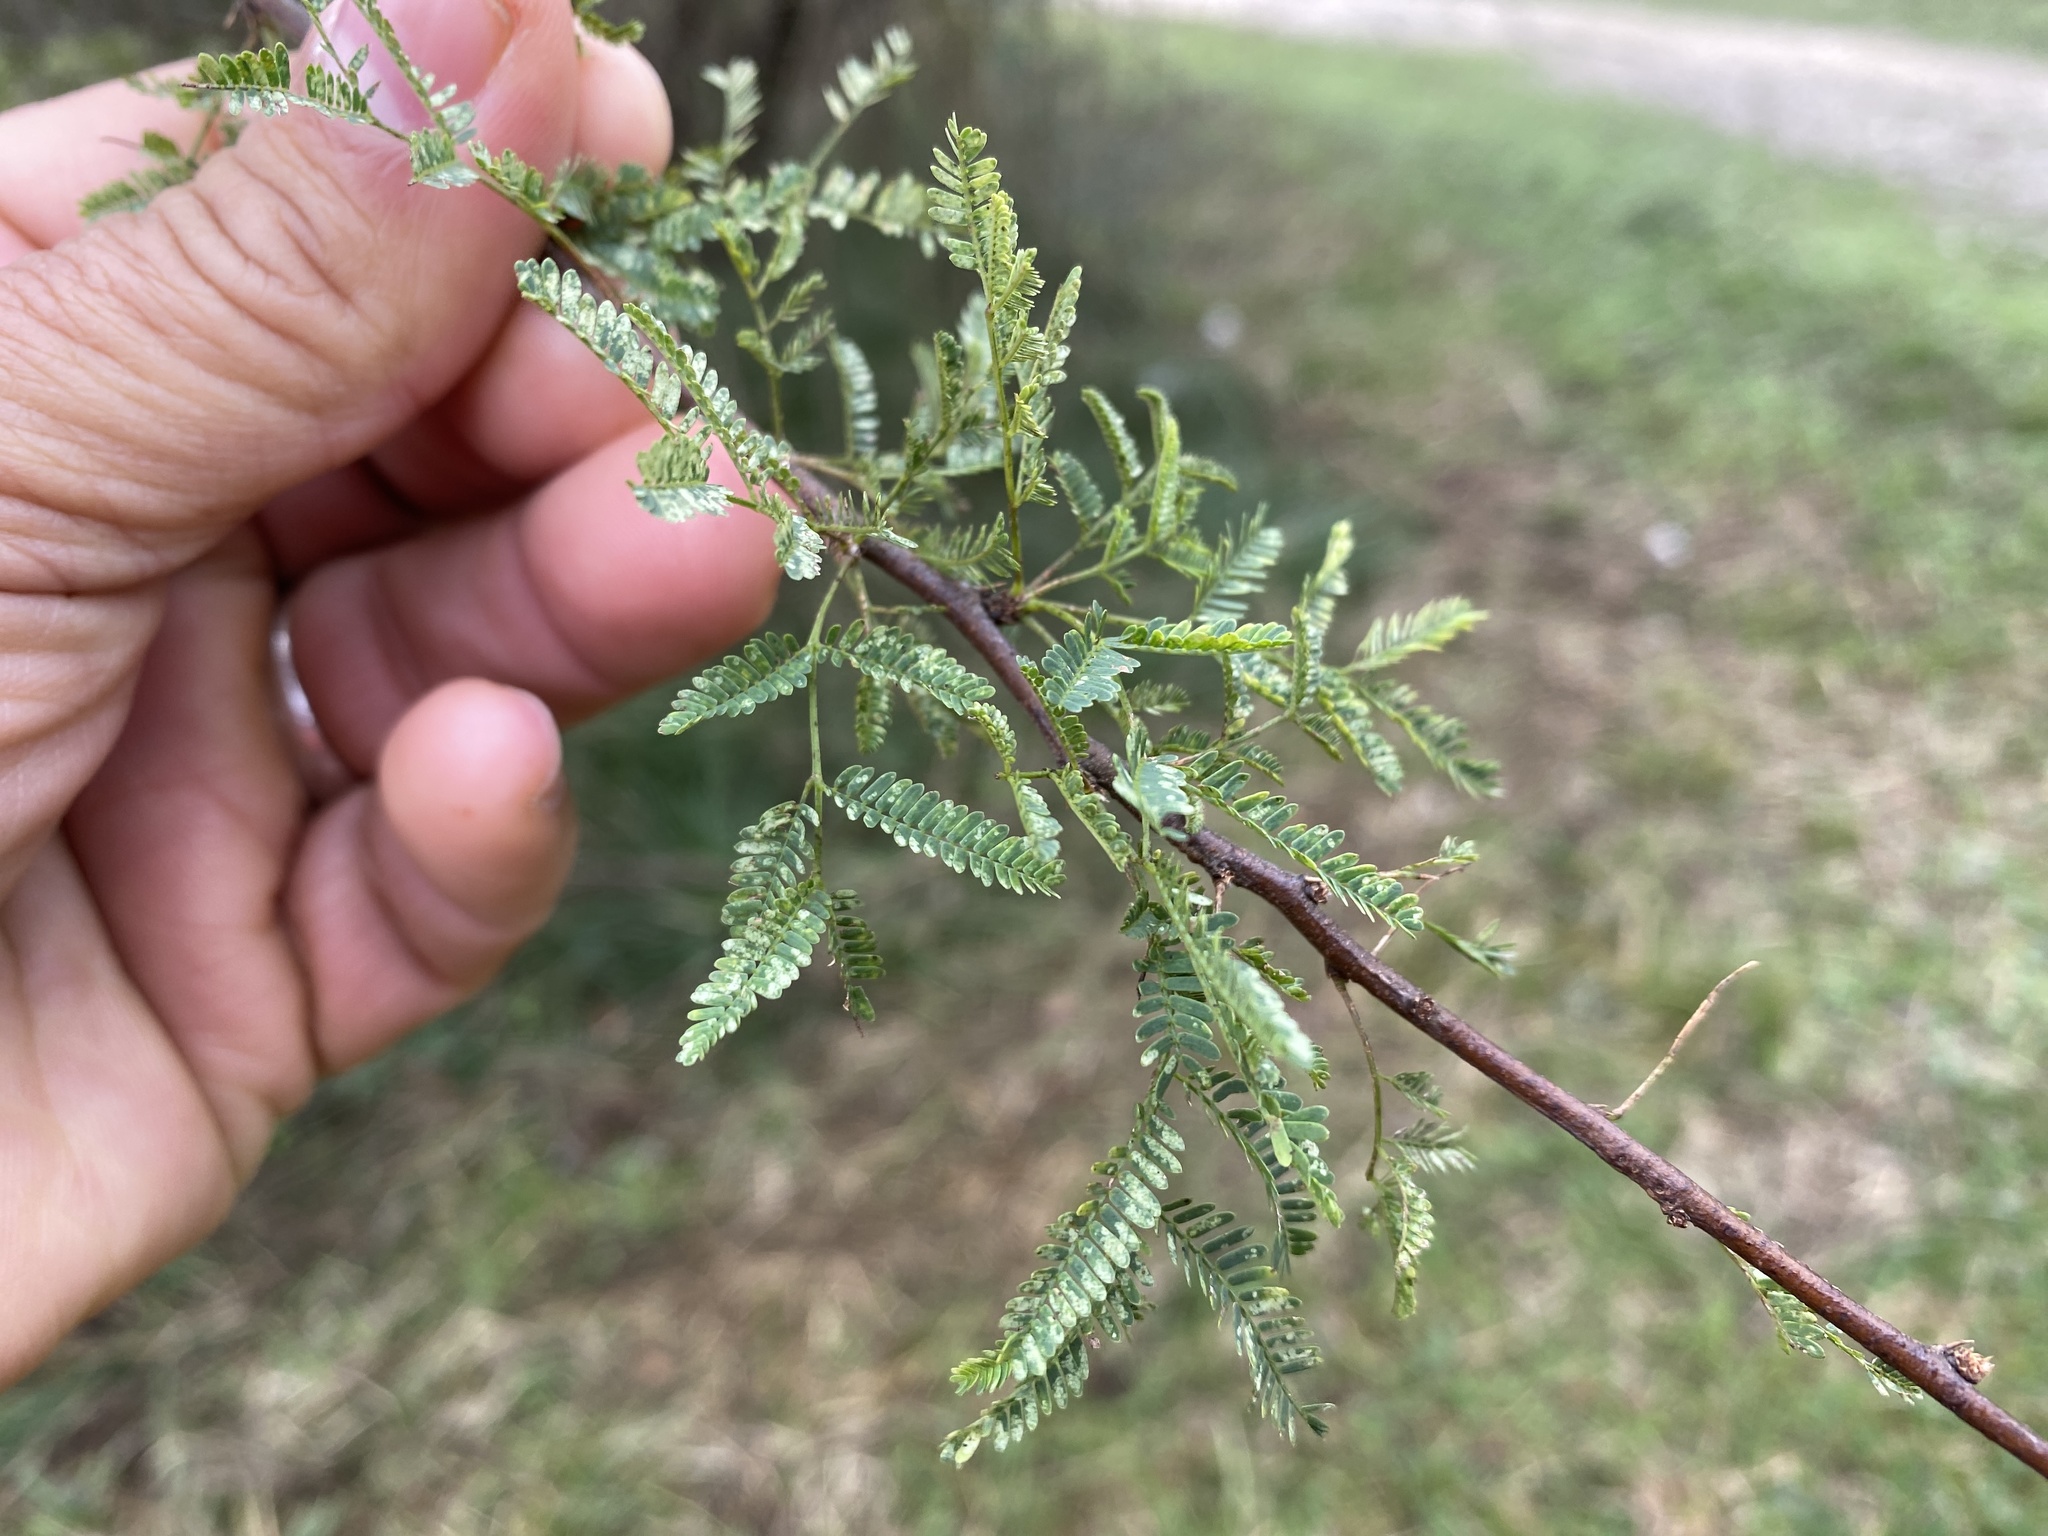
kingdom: Plantae
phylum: Tracheophyta
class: Magnoliopsida
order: Fabales
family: Fabaceae
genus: Vachellia
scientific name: Vachellia farnesiana
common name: Sweet acacia
